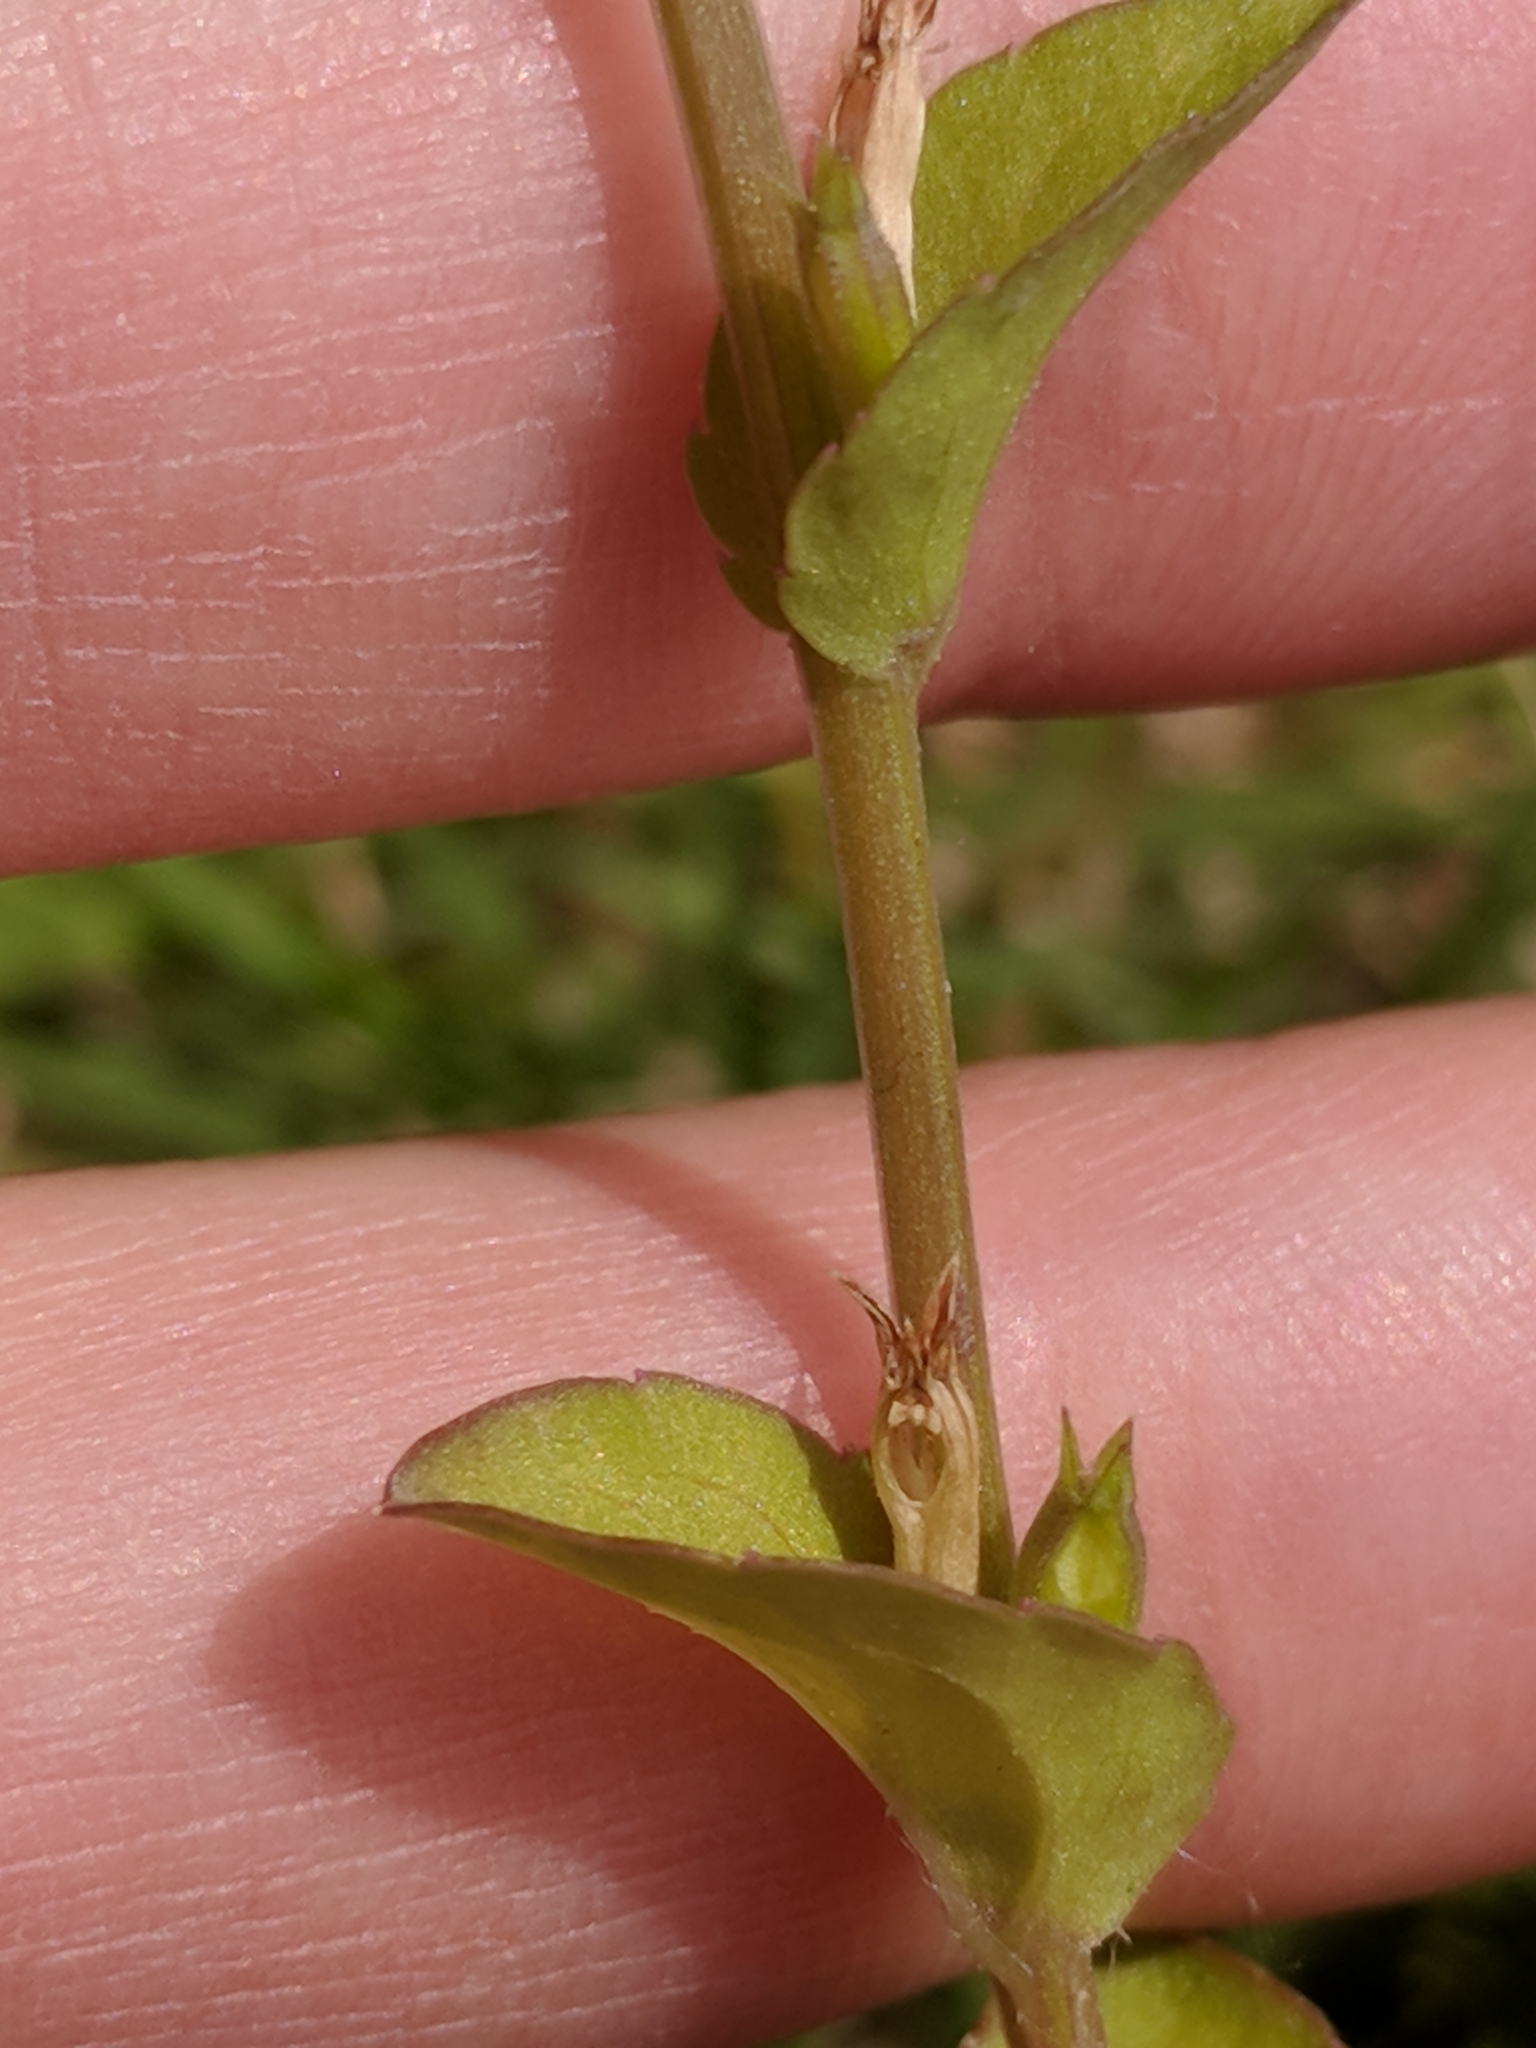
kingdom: Plantae
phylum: Tracheophyta
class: Magnoliopsida
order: Asterales
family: Campanulaceae
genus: Triodanis
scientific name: Triodanis biflora
